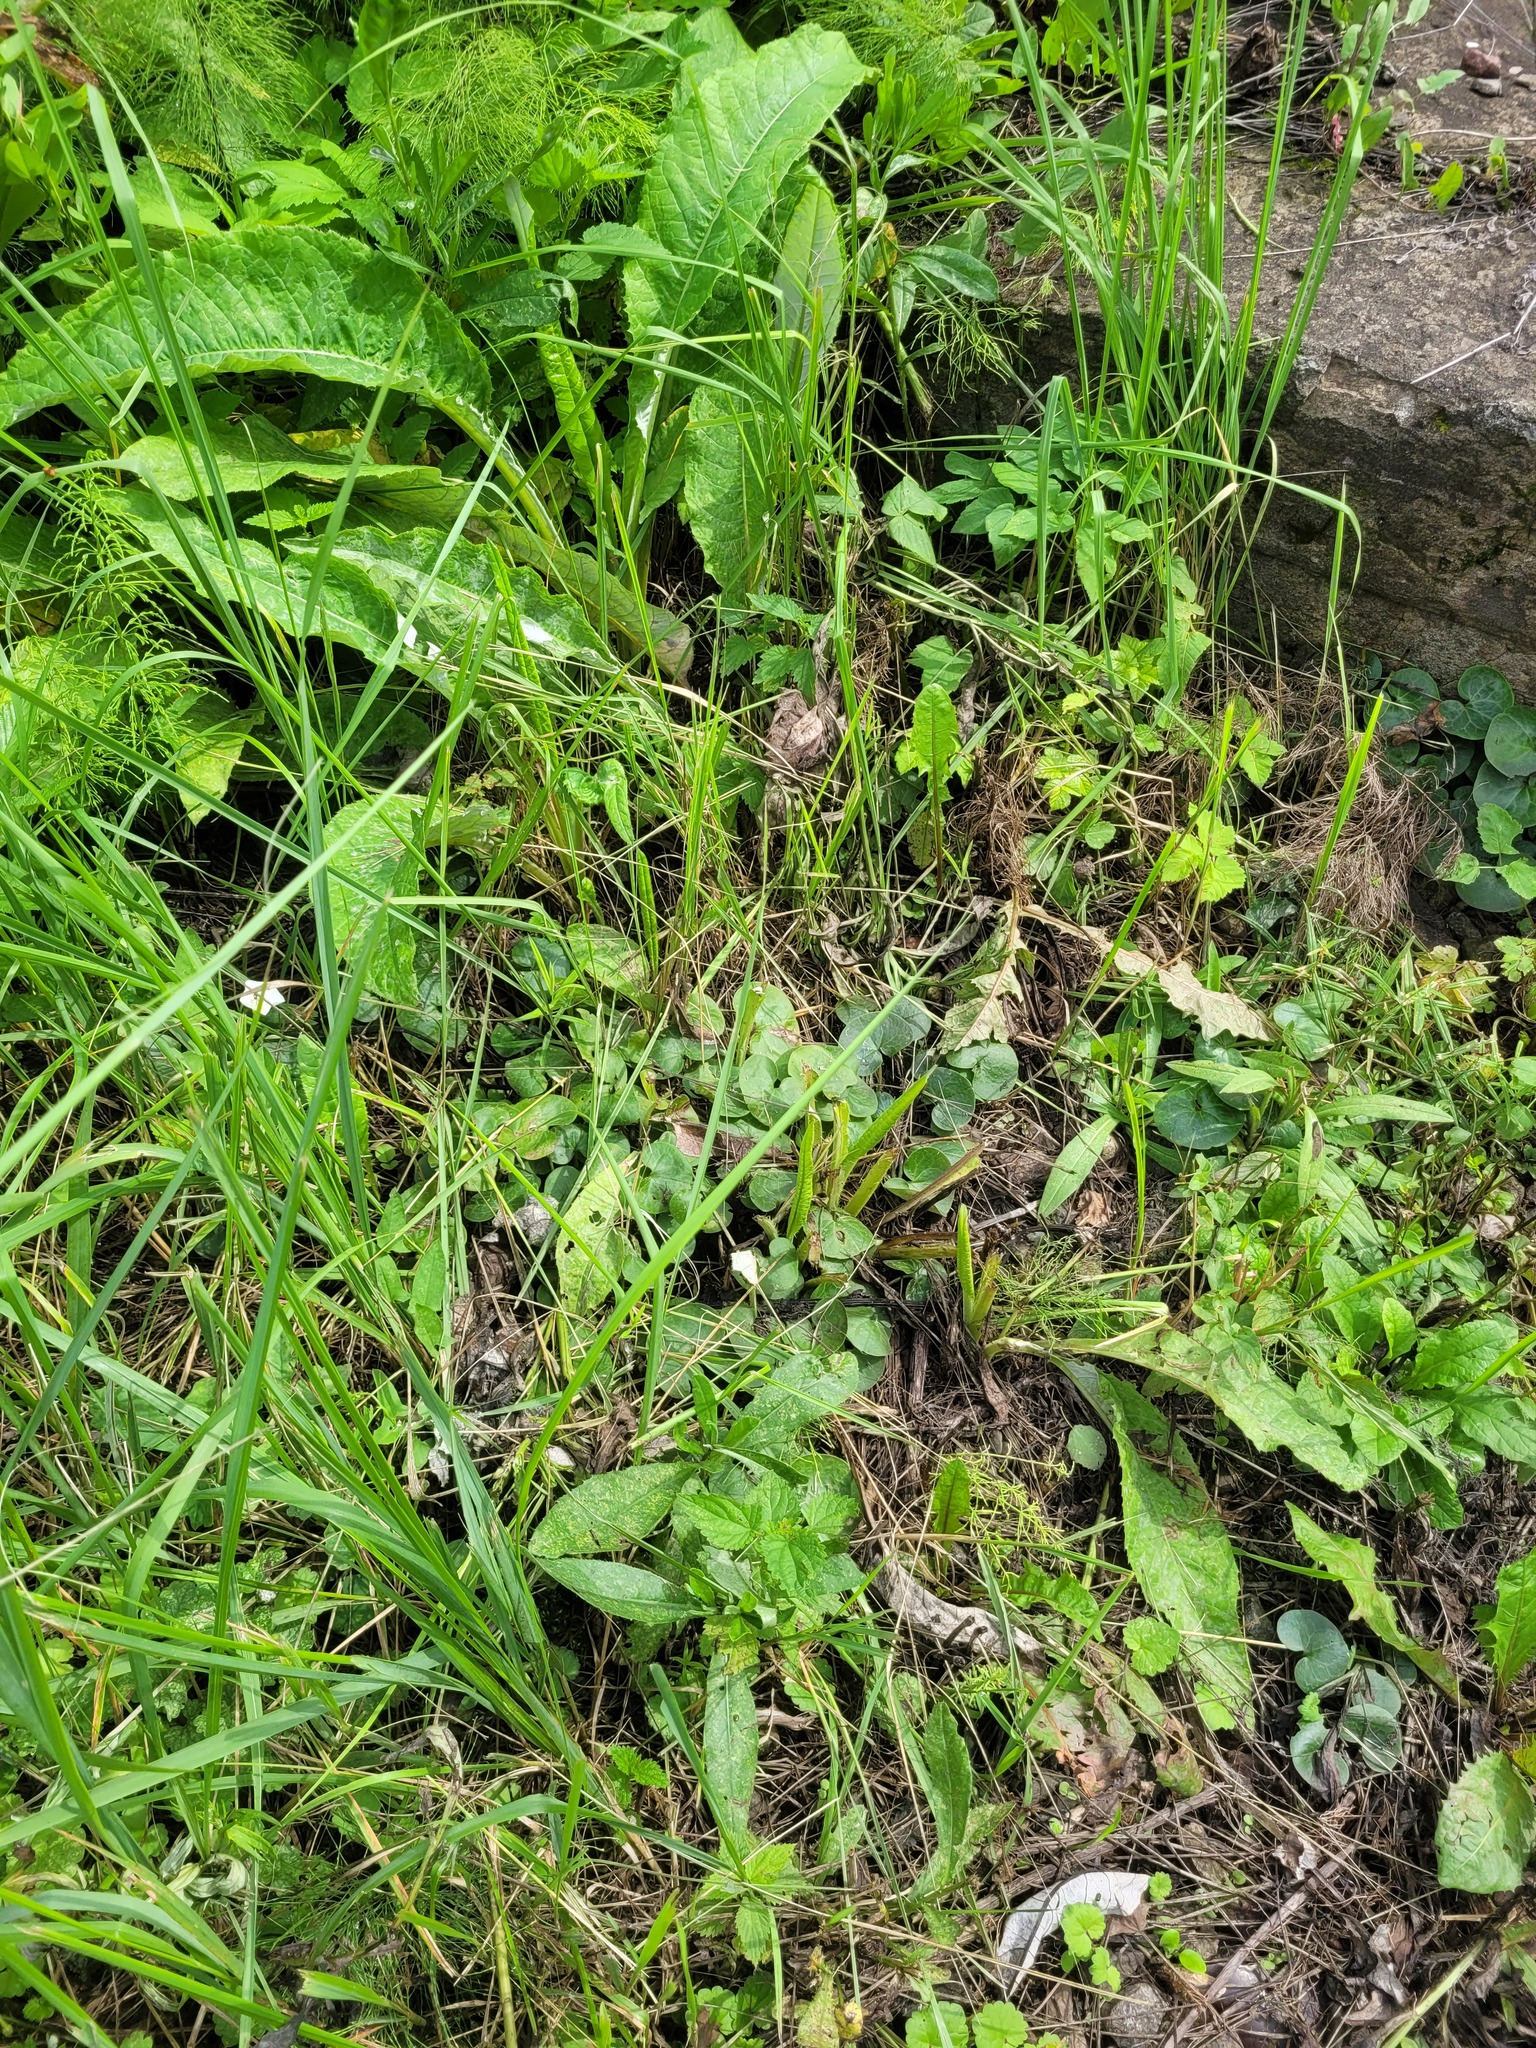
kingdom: Plantae
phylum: Tracheophyta
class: Magnoliopsida
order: Piperales
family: Aristolochiaceae
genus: Asarum
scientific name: Asarum europaeum
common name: Asarabacca
